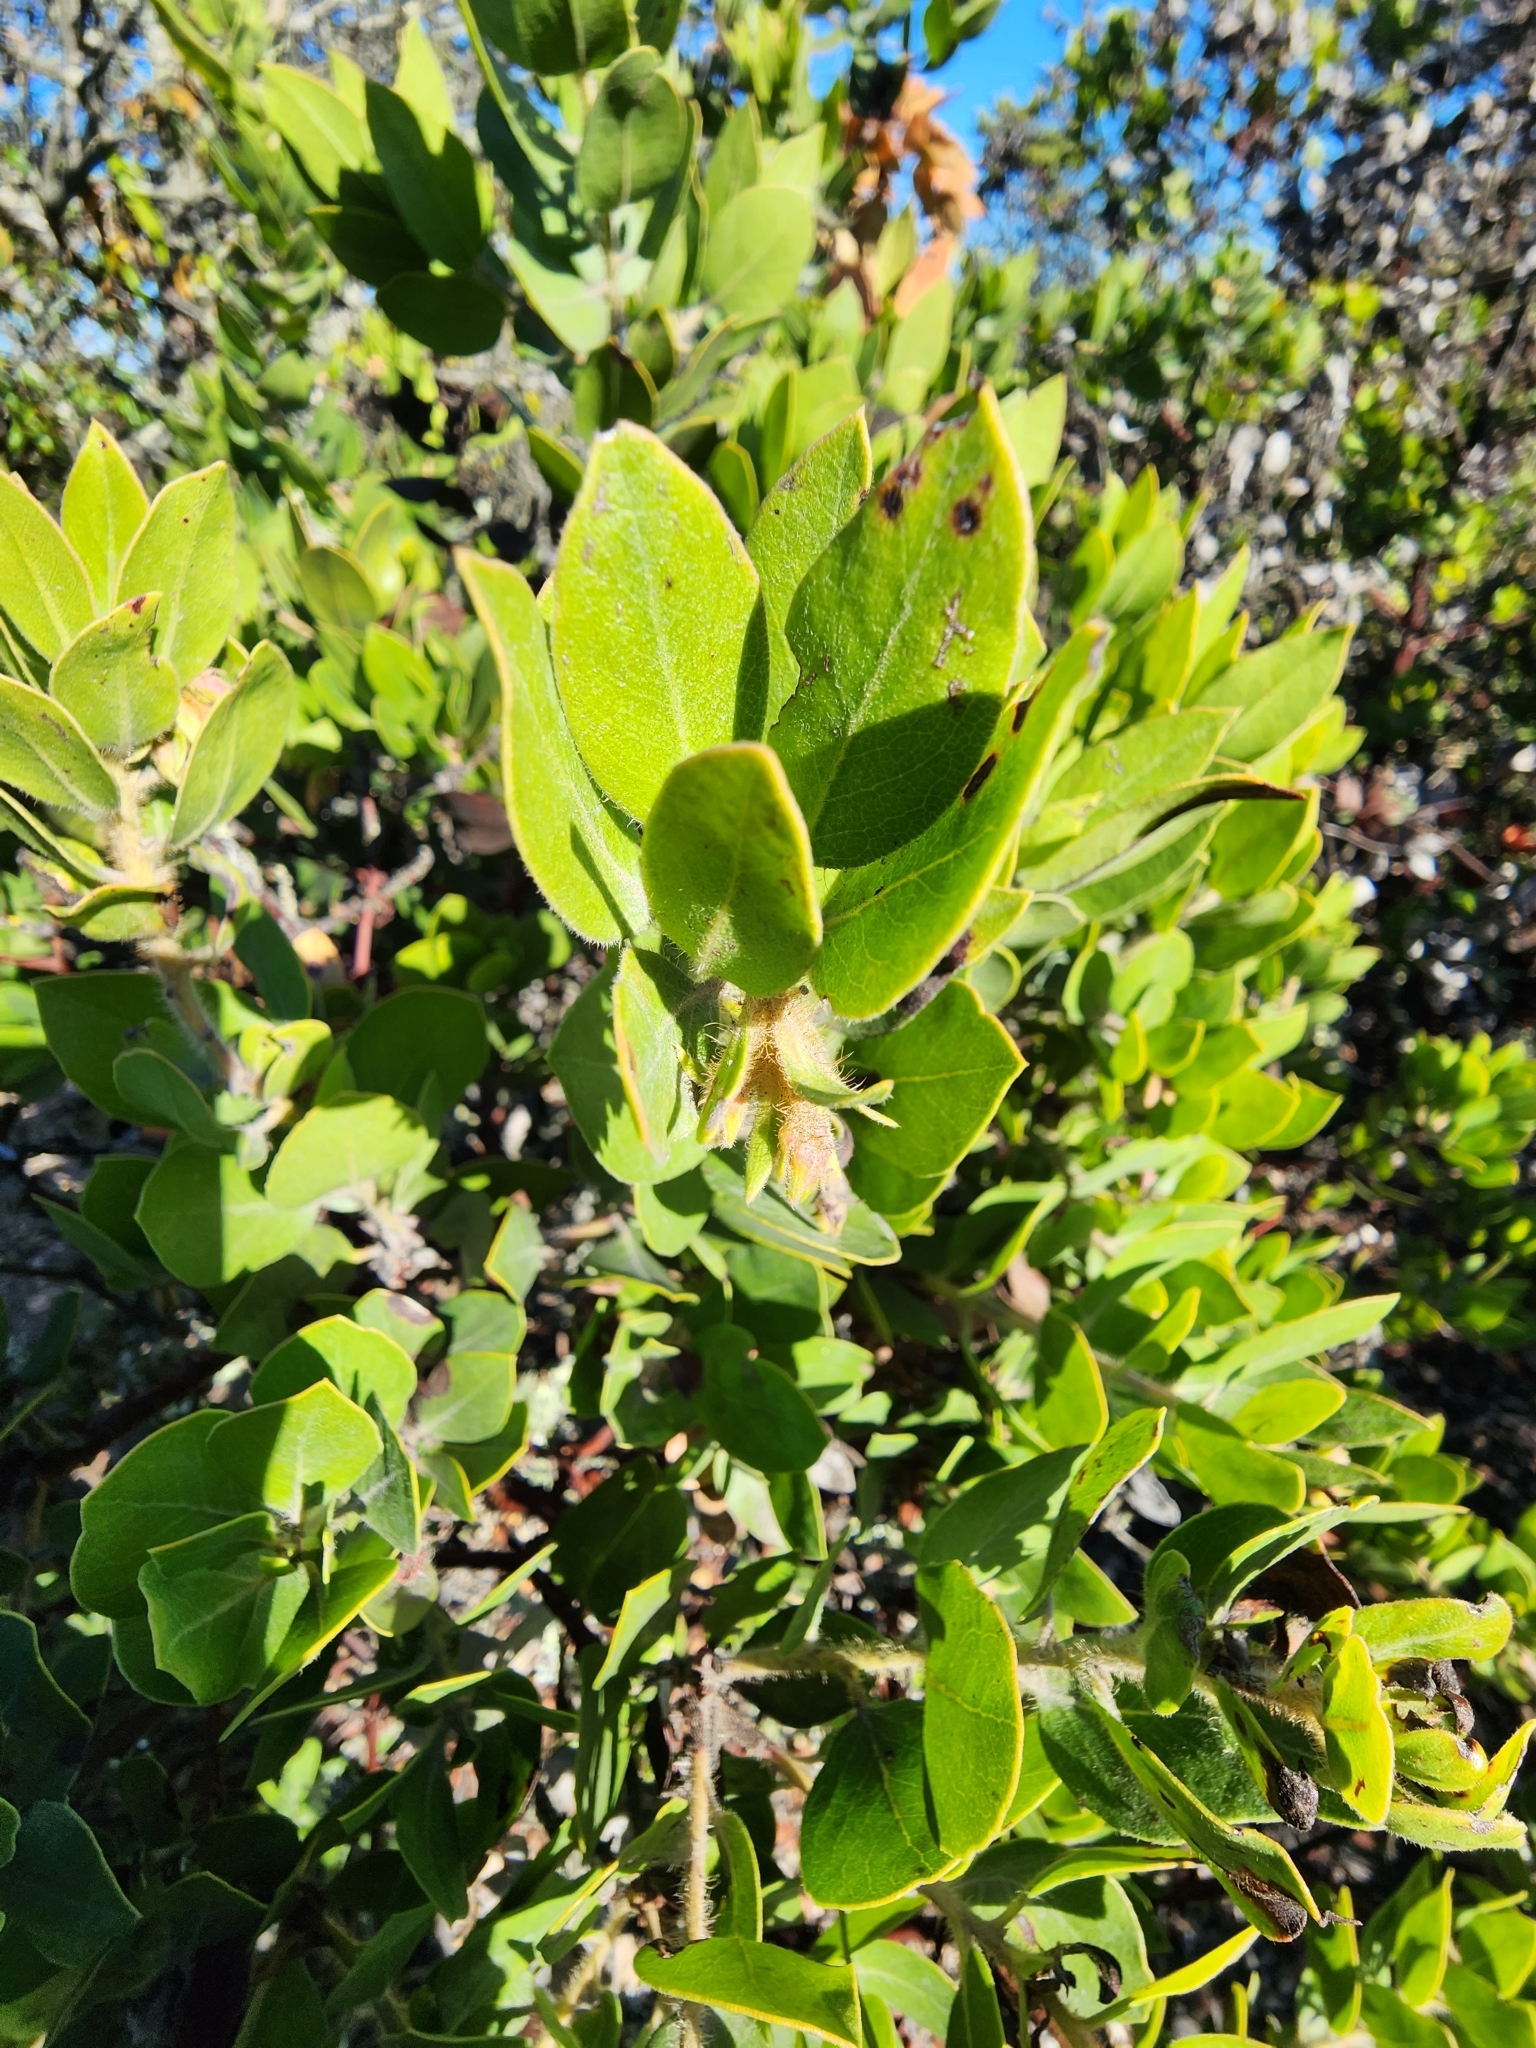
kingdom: Plantae
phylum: Tracheophyta
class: Magnoliopsida
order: Ericales
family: Ericaceae
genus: Arctostaphylos
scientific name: Arctostaphylos crustacea
